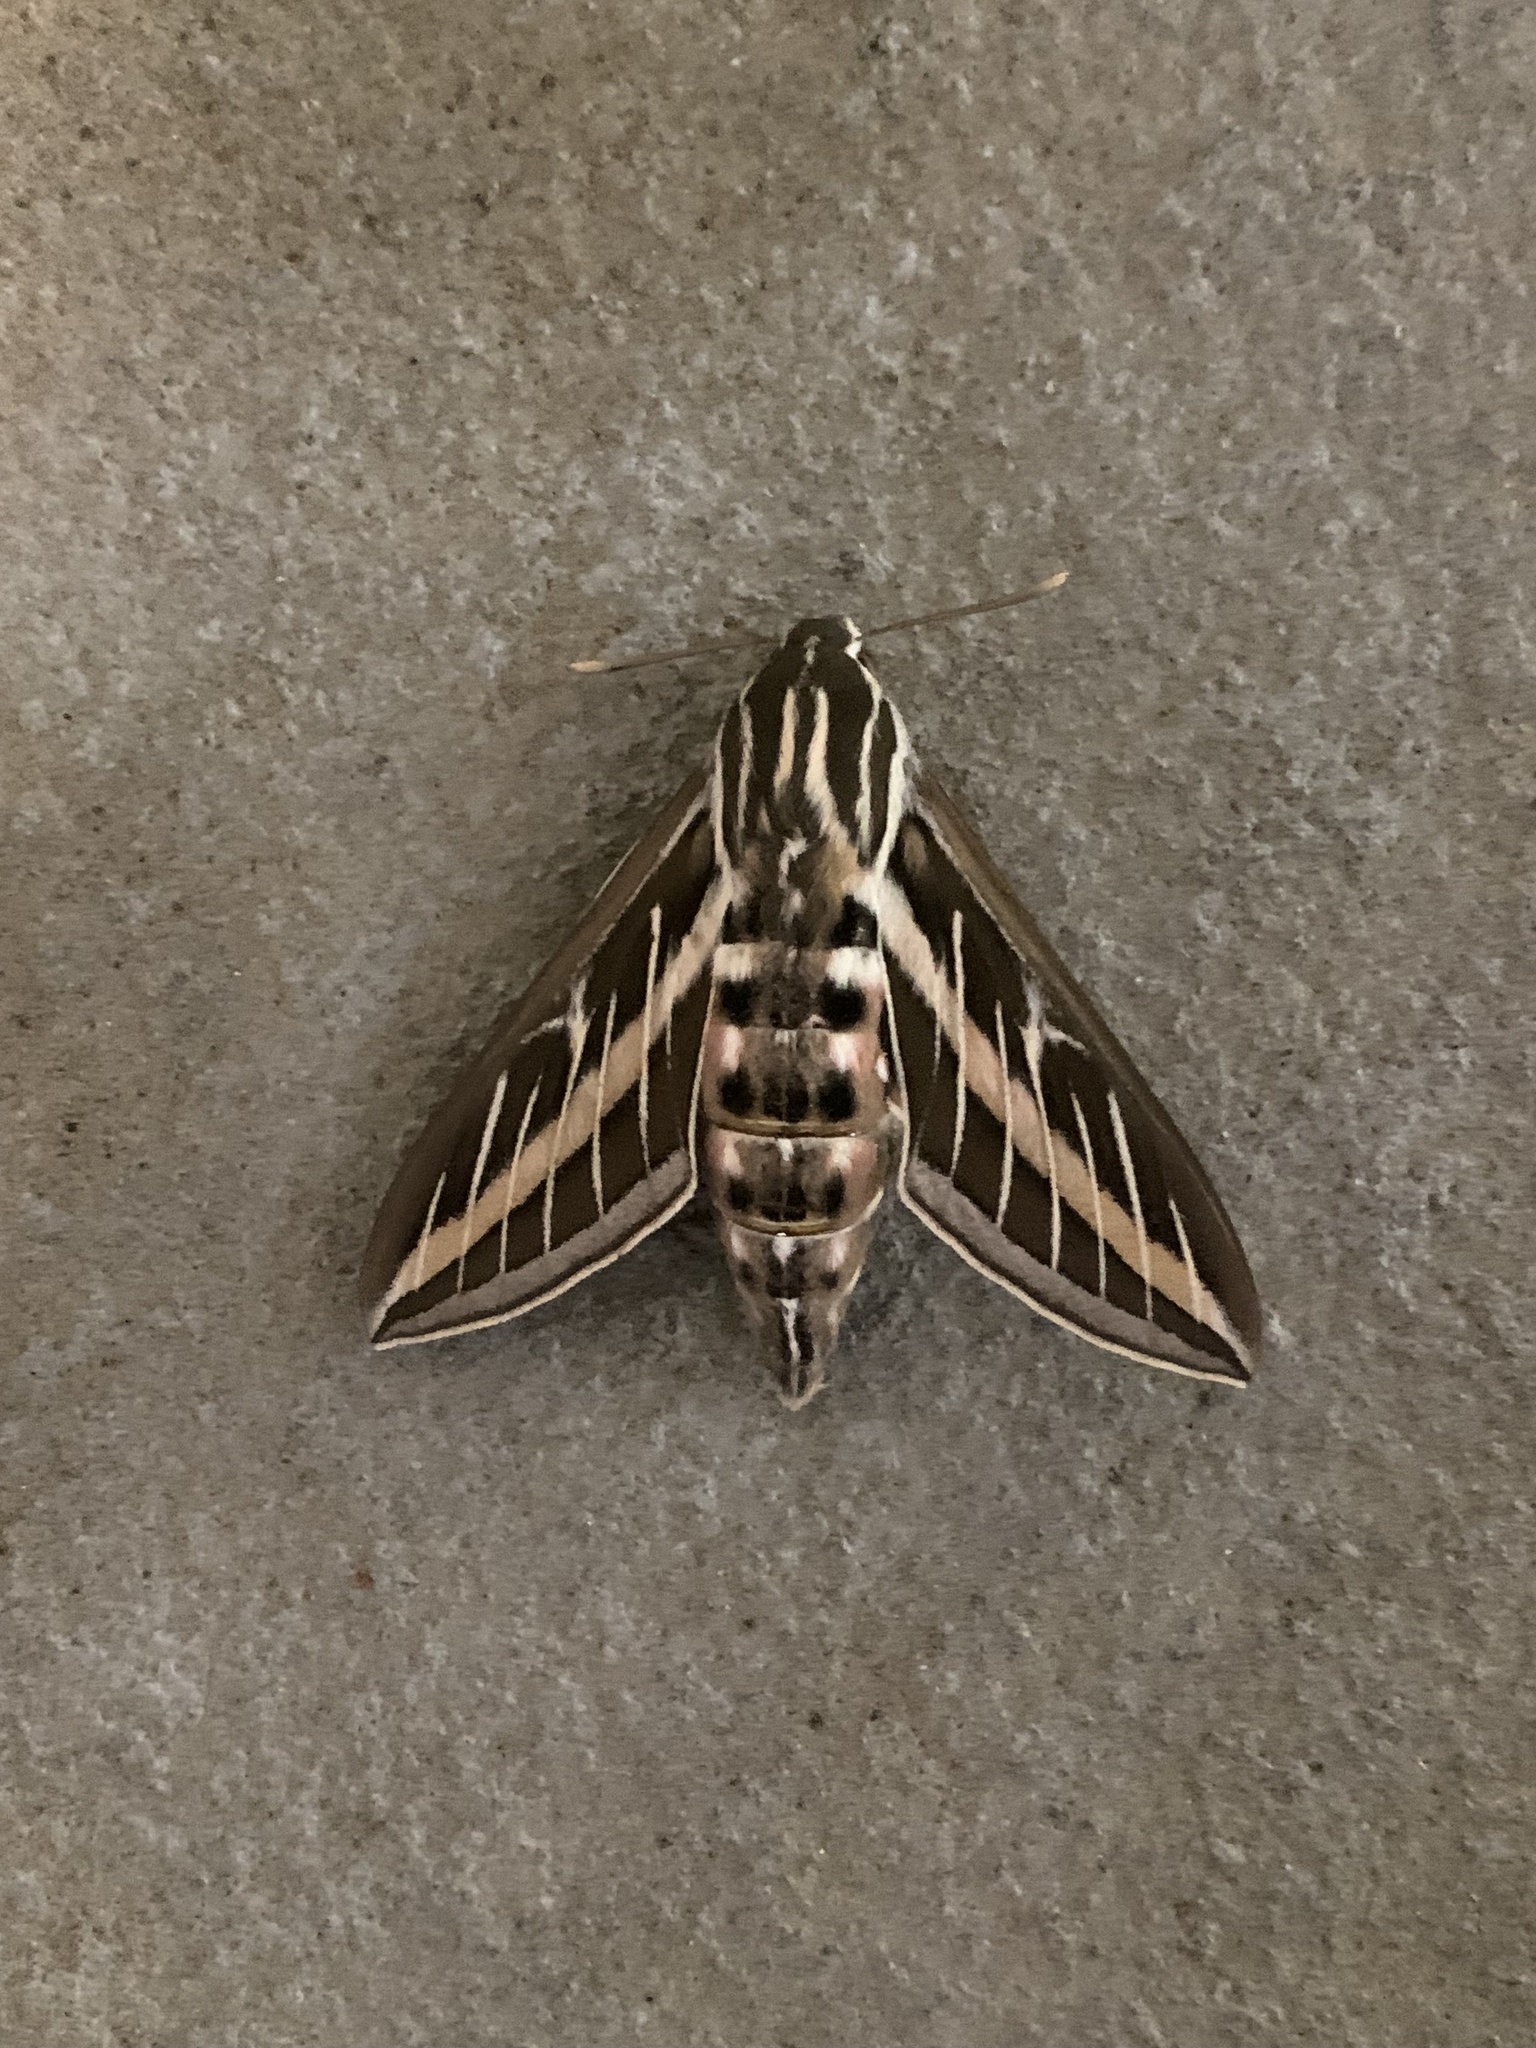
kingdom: Animalia
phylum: Arthropoda
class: Insecta
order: Lepidoptera
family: Sphingidae
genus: Hyles
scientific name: Hyles lineata
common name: White-lined sphinx
